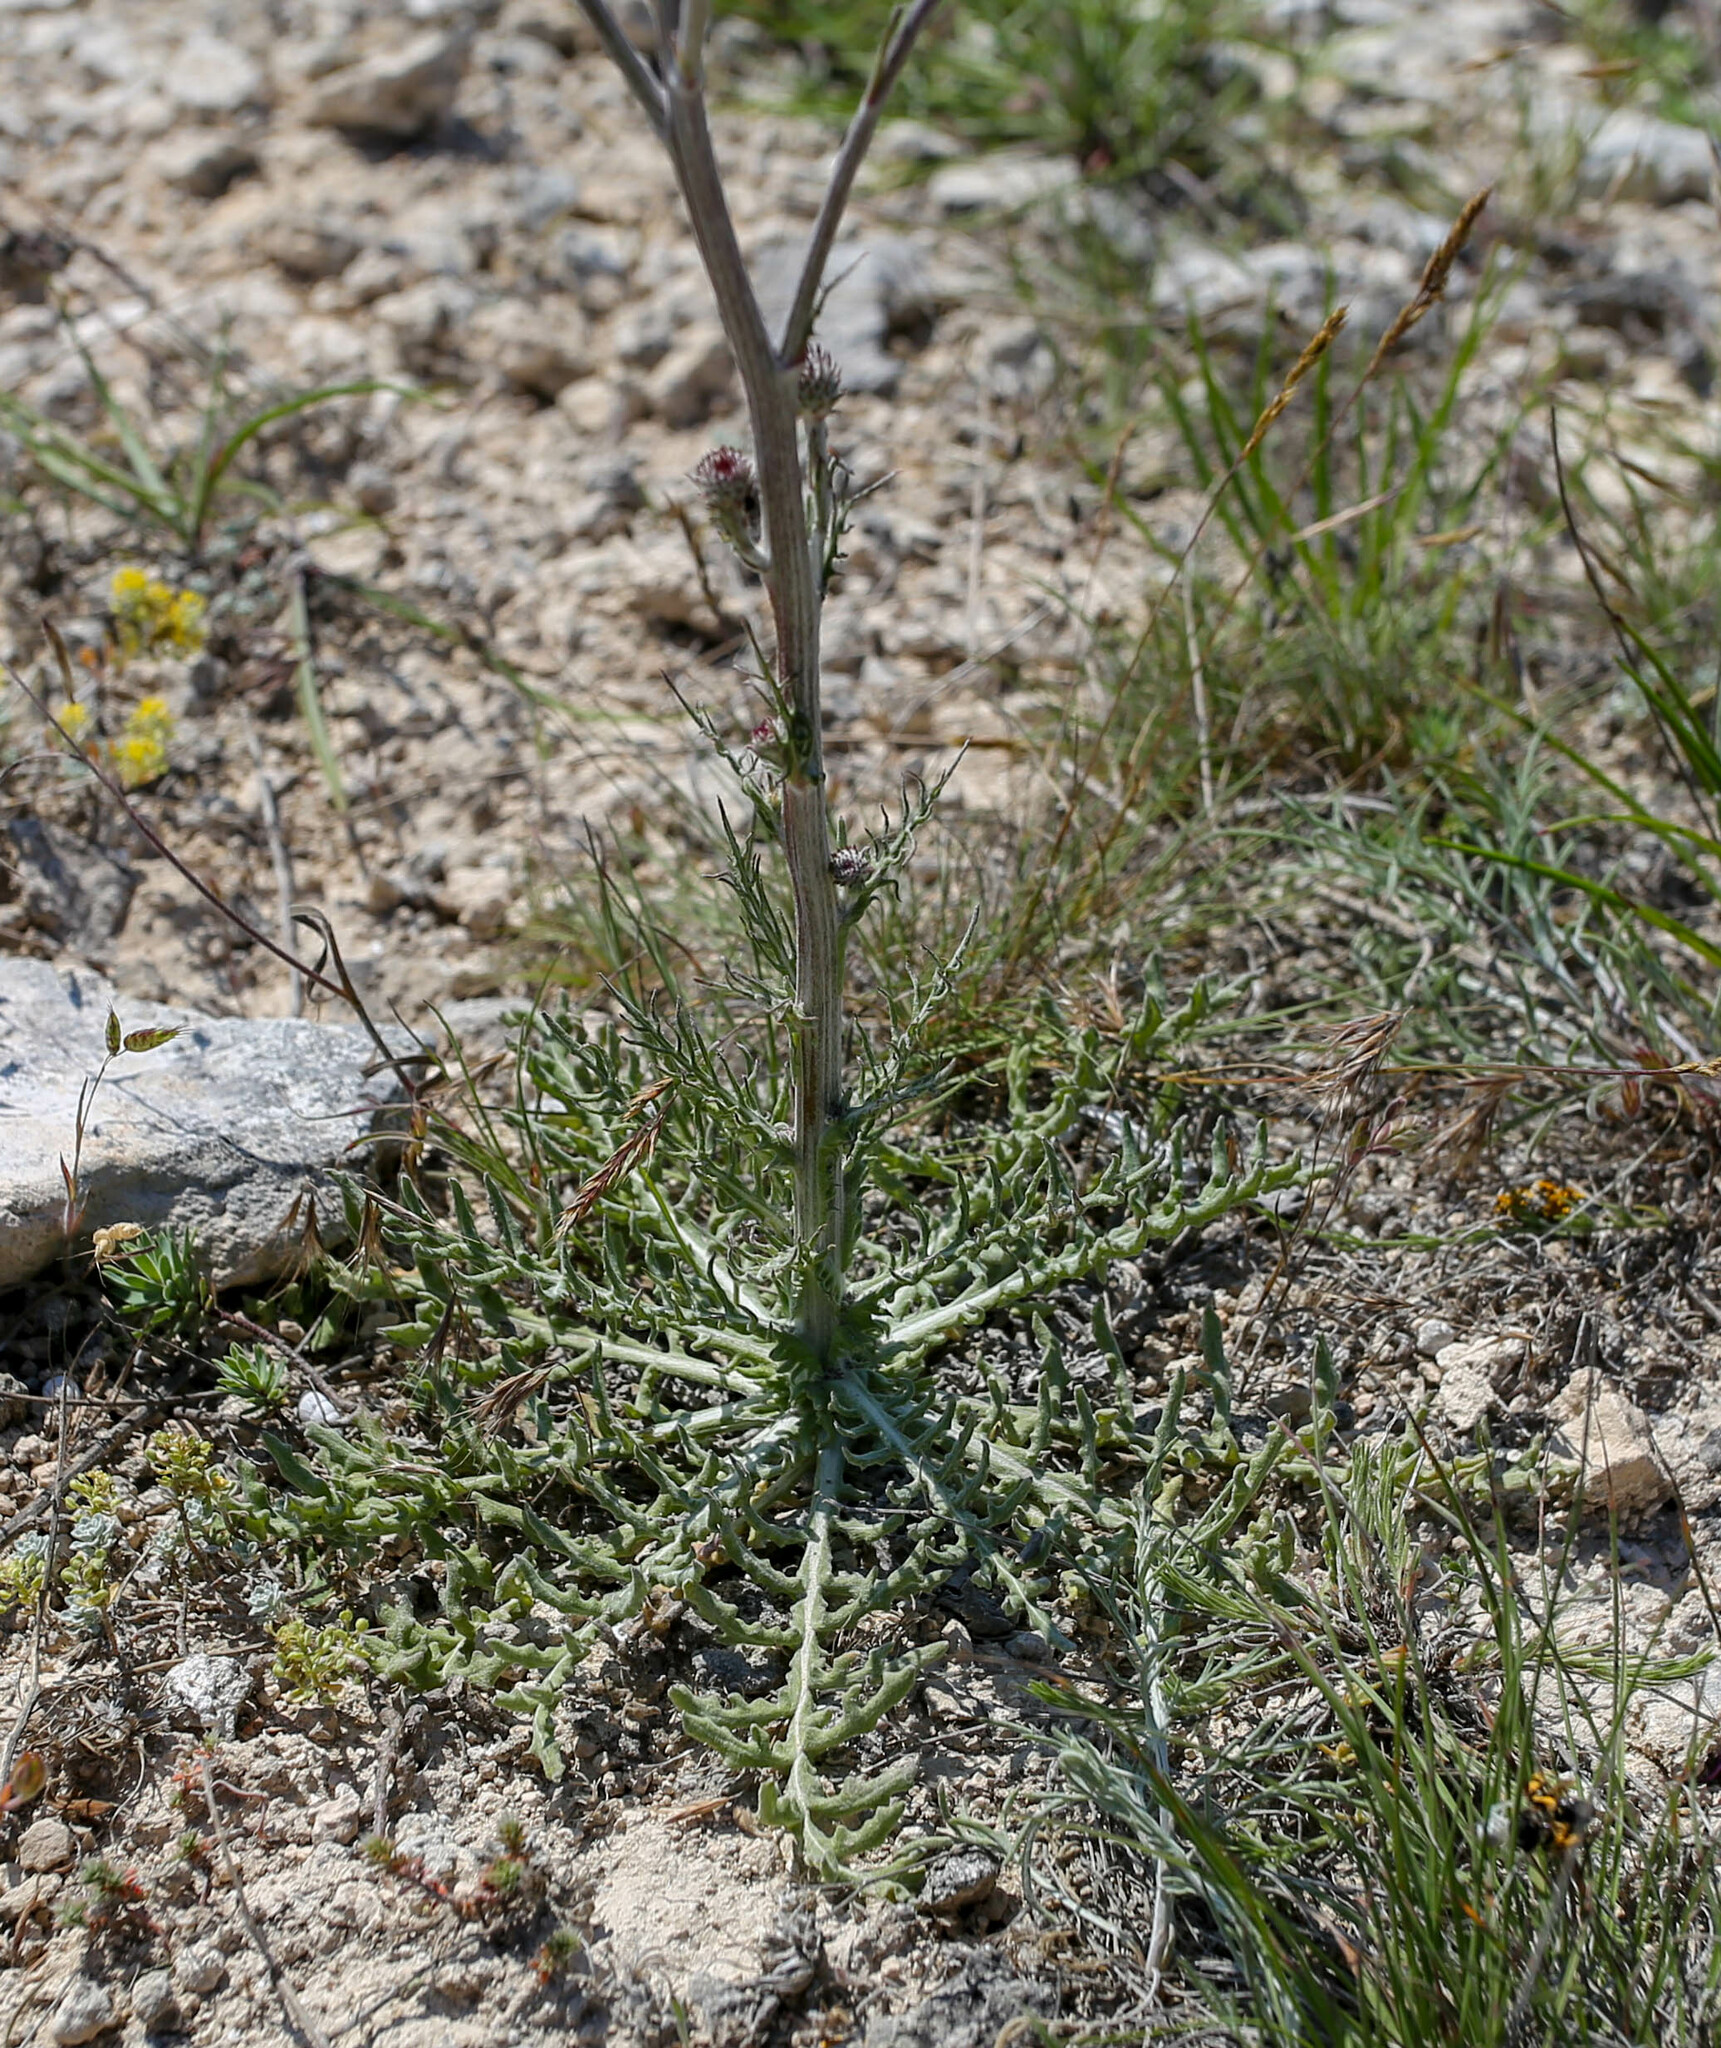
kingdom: Plantae
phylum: Tracheophyta
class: Magnoliopsida
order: Asterales
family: Asteraceae
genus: Jurinea
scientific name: Jurinea roegneri
